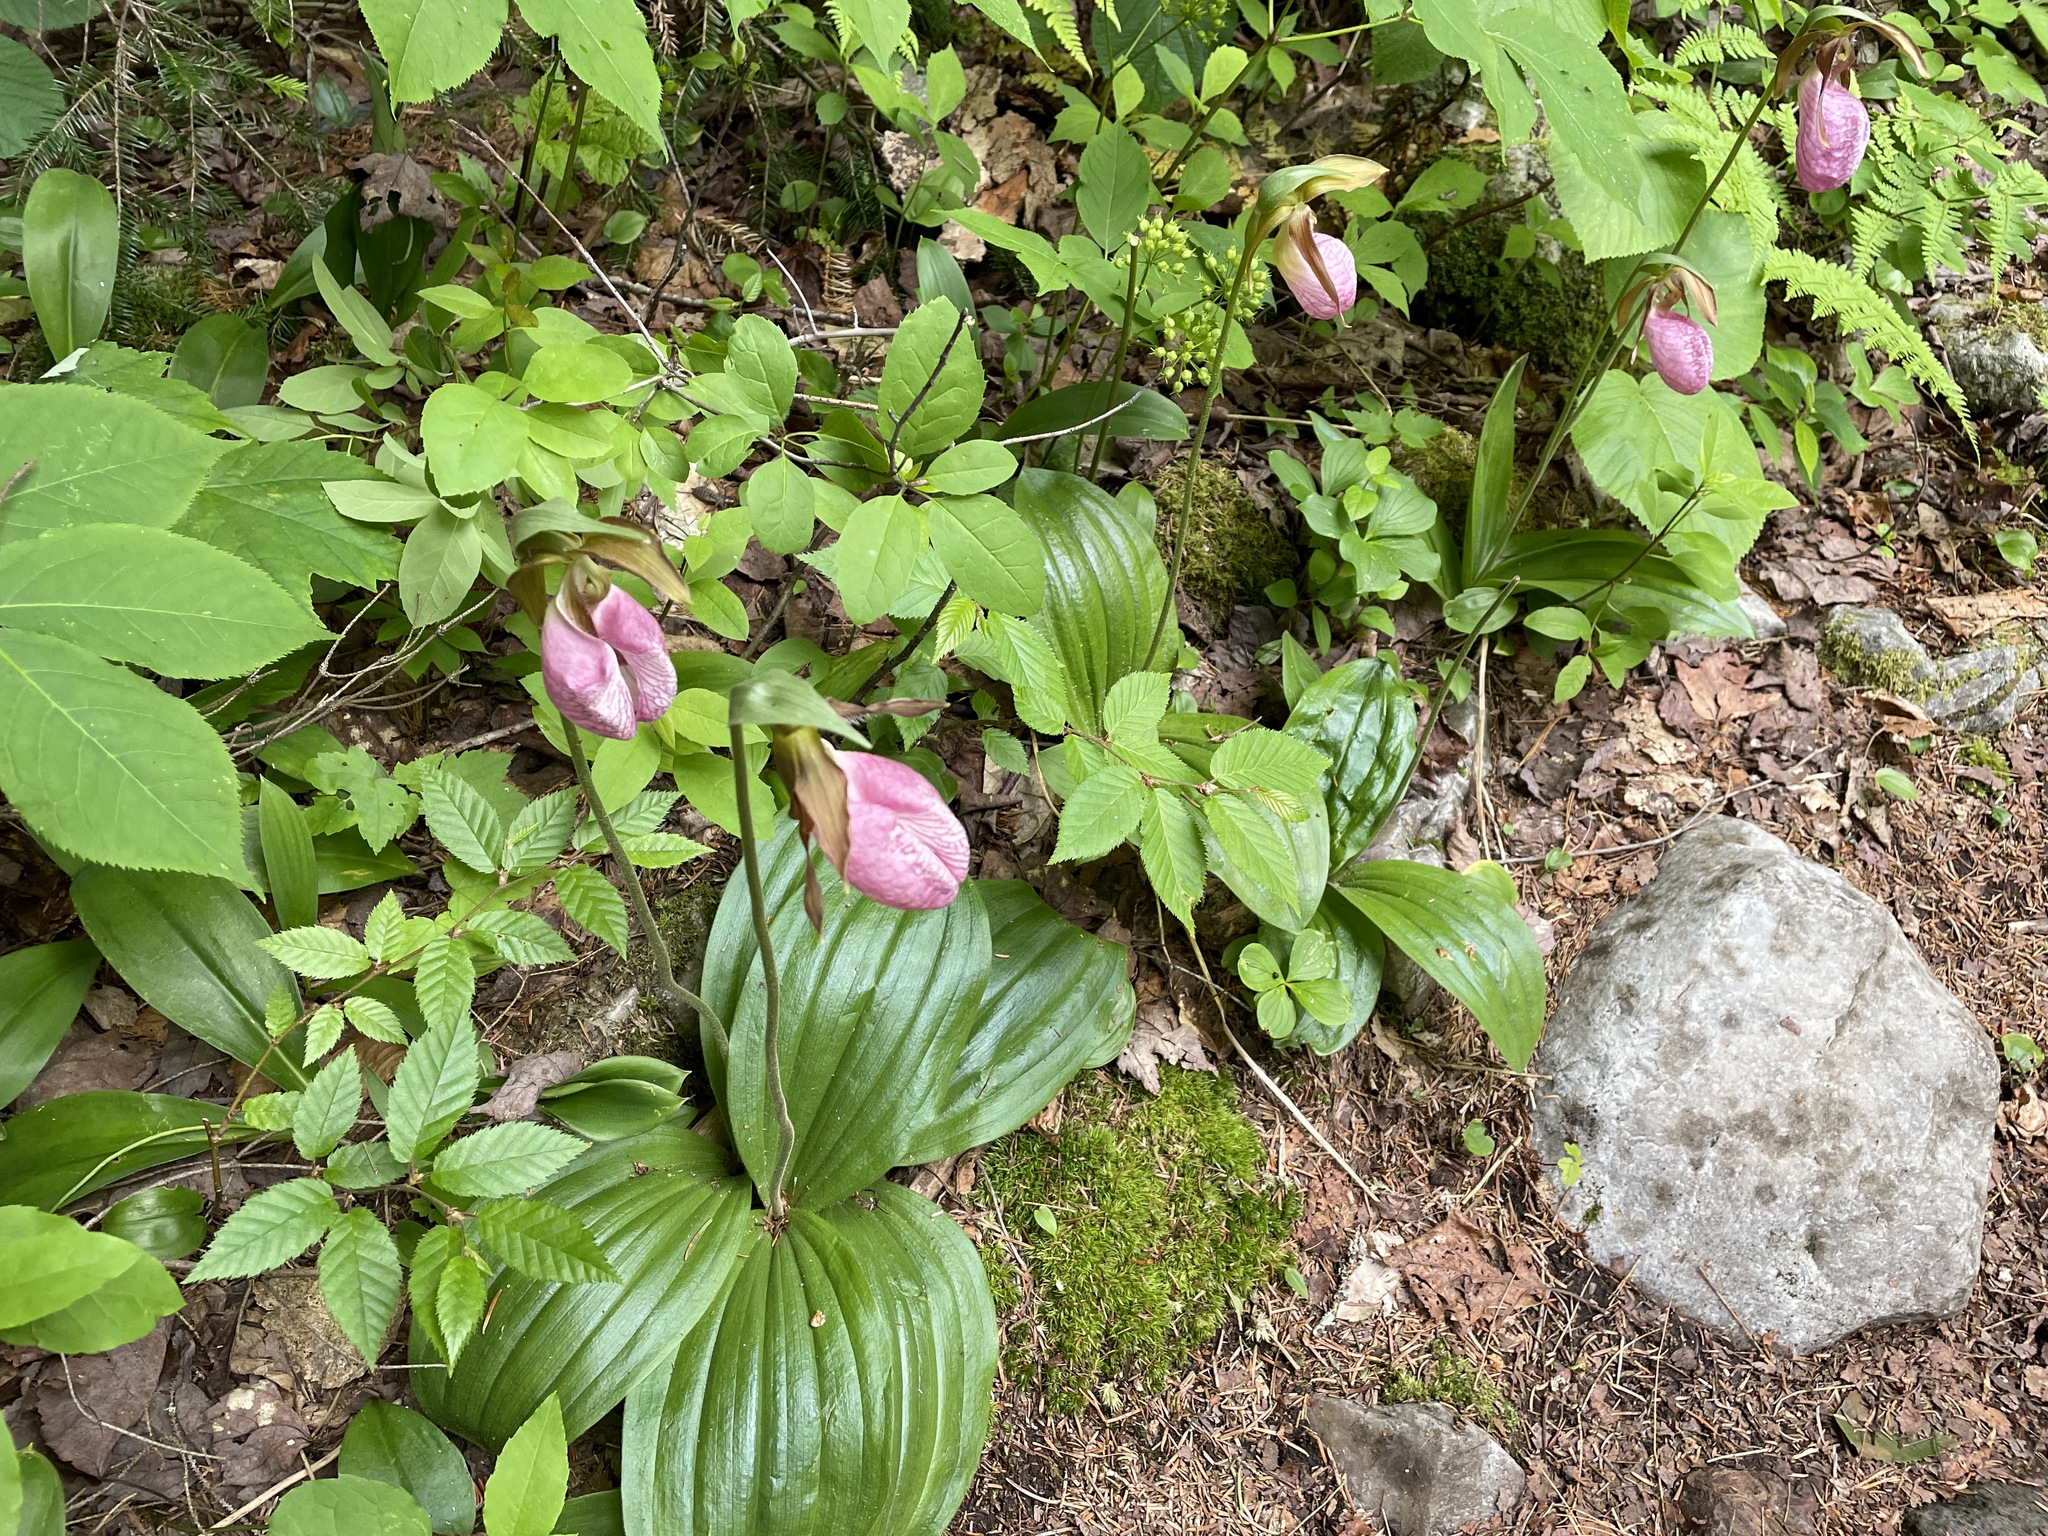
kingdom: Plantae
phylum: Tracheophyta
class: Liliopsida
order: Asparagales
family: Orchidaceae
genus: Cypripedium
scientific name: Cypripedium acaule
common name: Pink lady's-slipper
